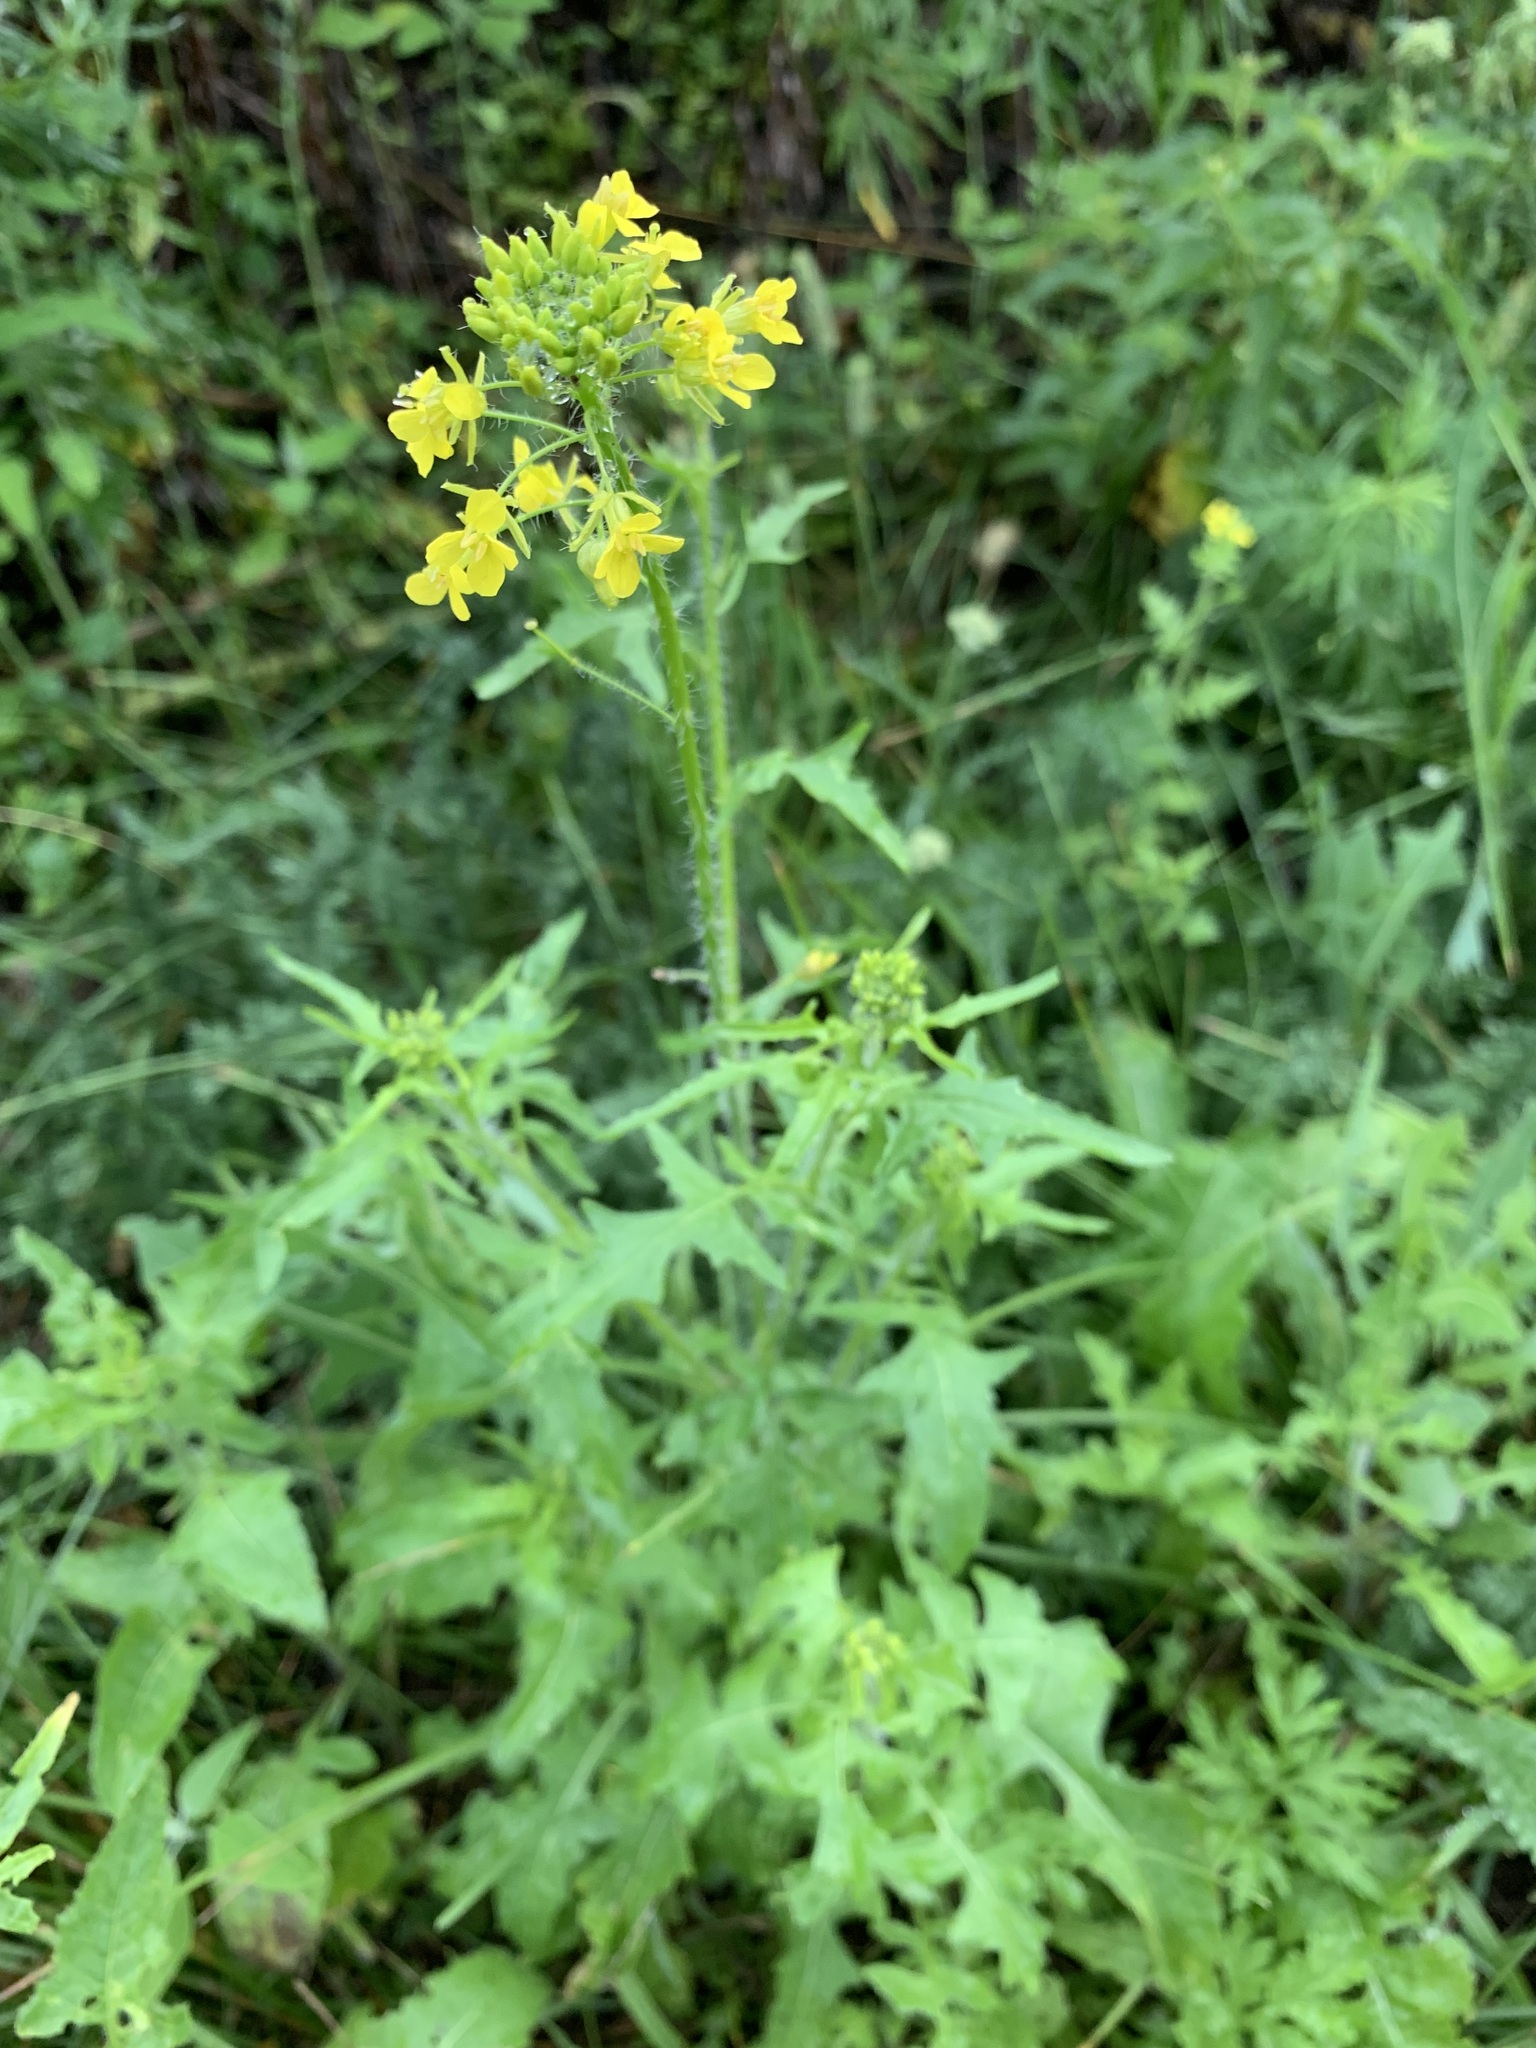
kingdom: Plantae
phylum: Tracheophyta
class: Magnoliopsida
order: Brassicales
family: Brassicaceae
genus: Sisymbrium
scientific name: Sisymbrium loeselii
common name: False london-rocket
